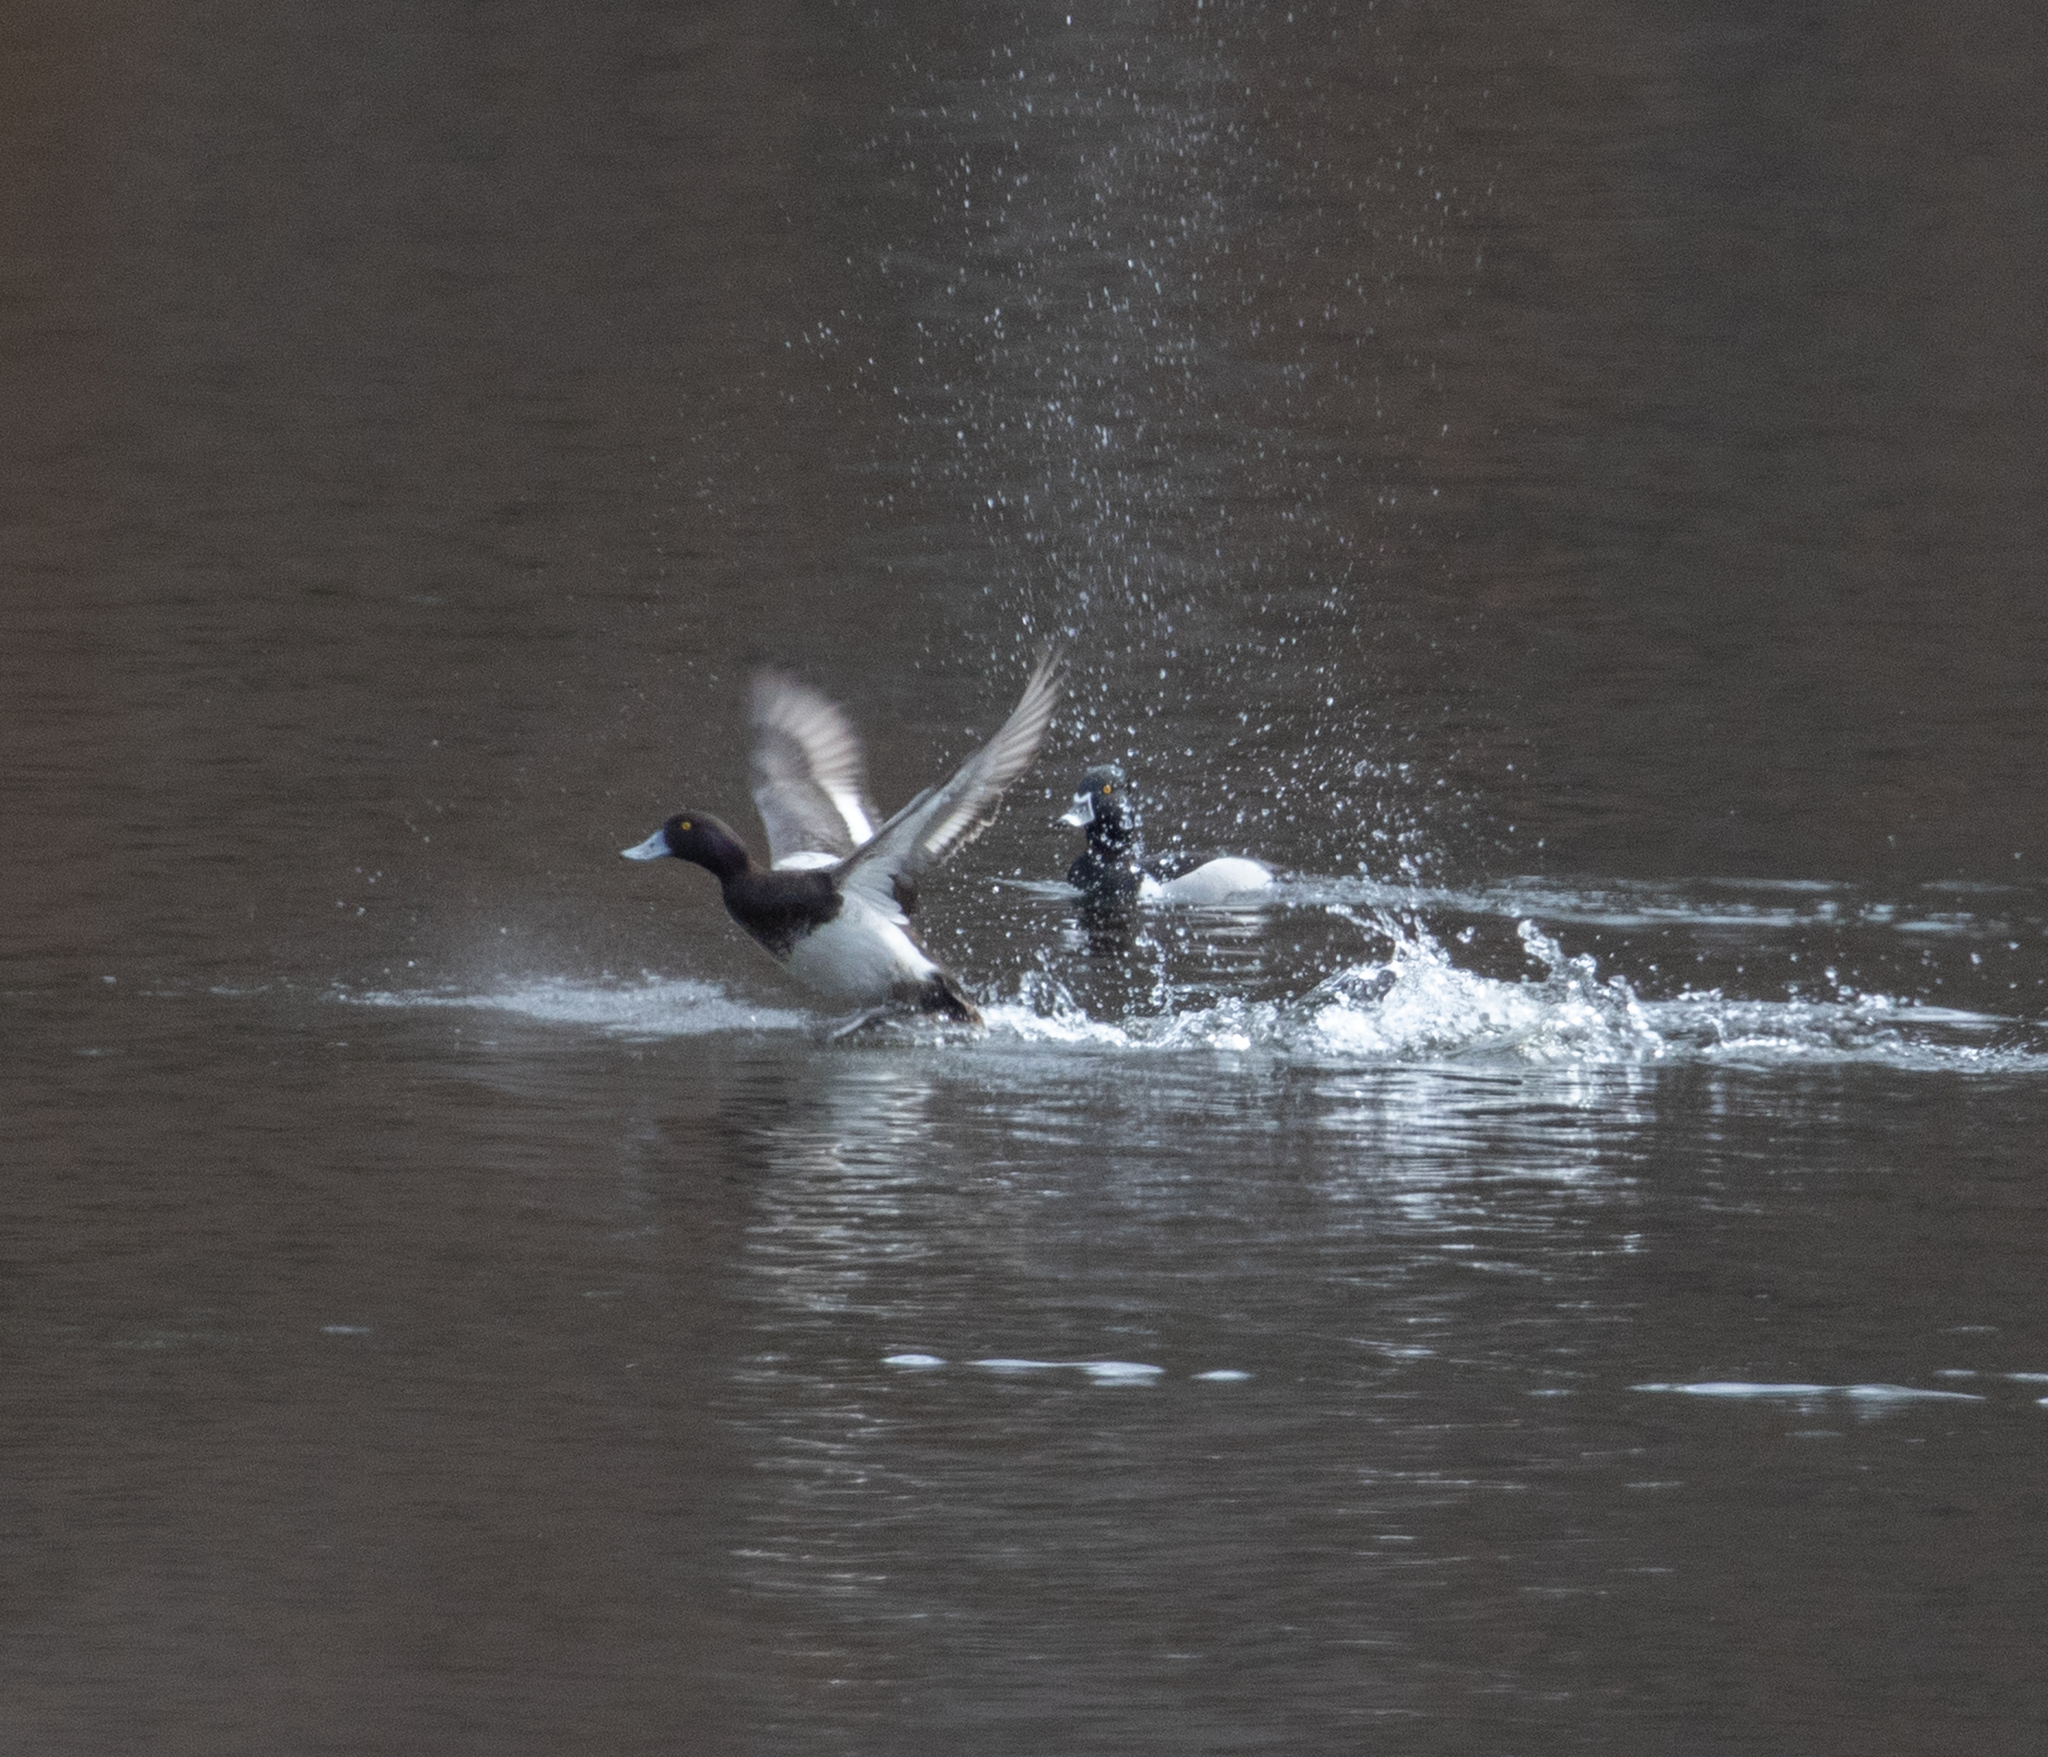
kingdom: Animalia
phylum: Chordata
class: Aves
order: Anseriformes
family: Anatidae
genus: Aythya
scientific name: Aythya affinis
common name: Lesser scaup
